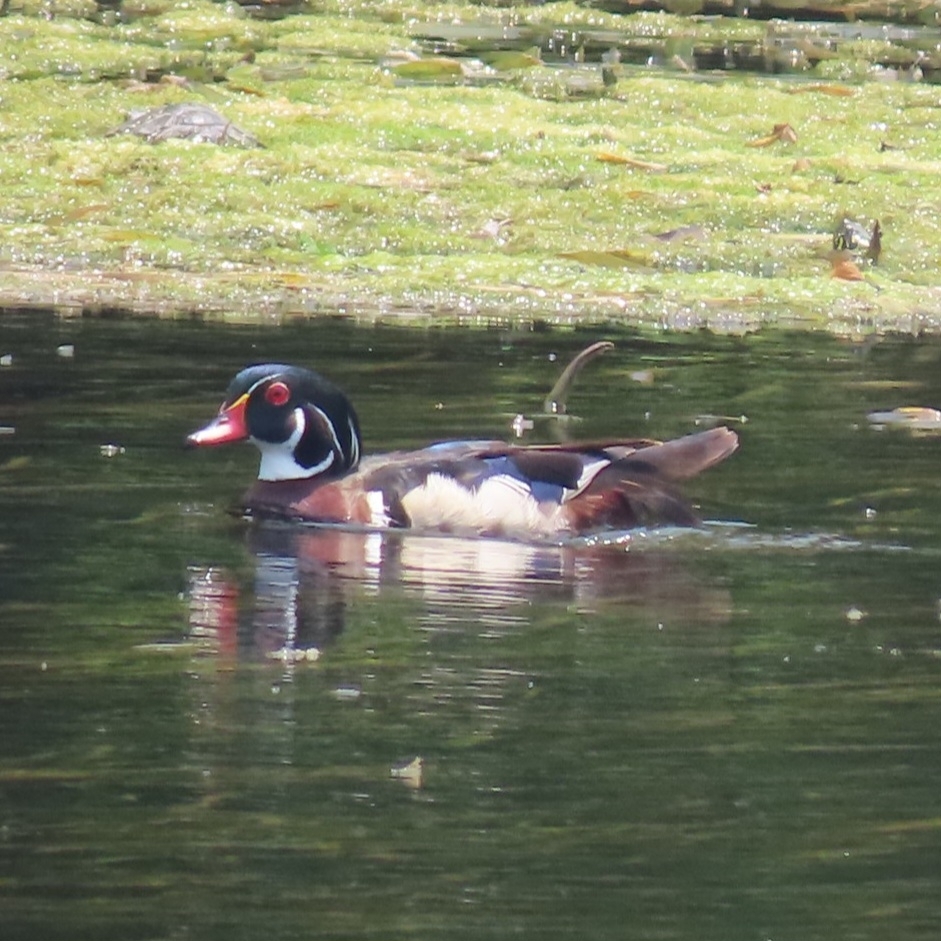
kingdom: Animalia
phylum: Chordata
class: Aves
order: Anseriformes
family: Anatidae
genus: Aix
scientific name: Aix sponsa
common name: Wood duck
